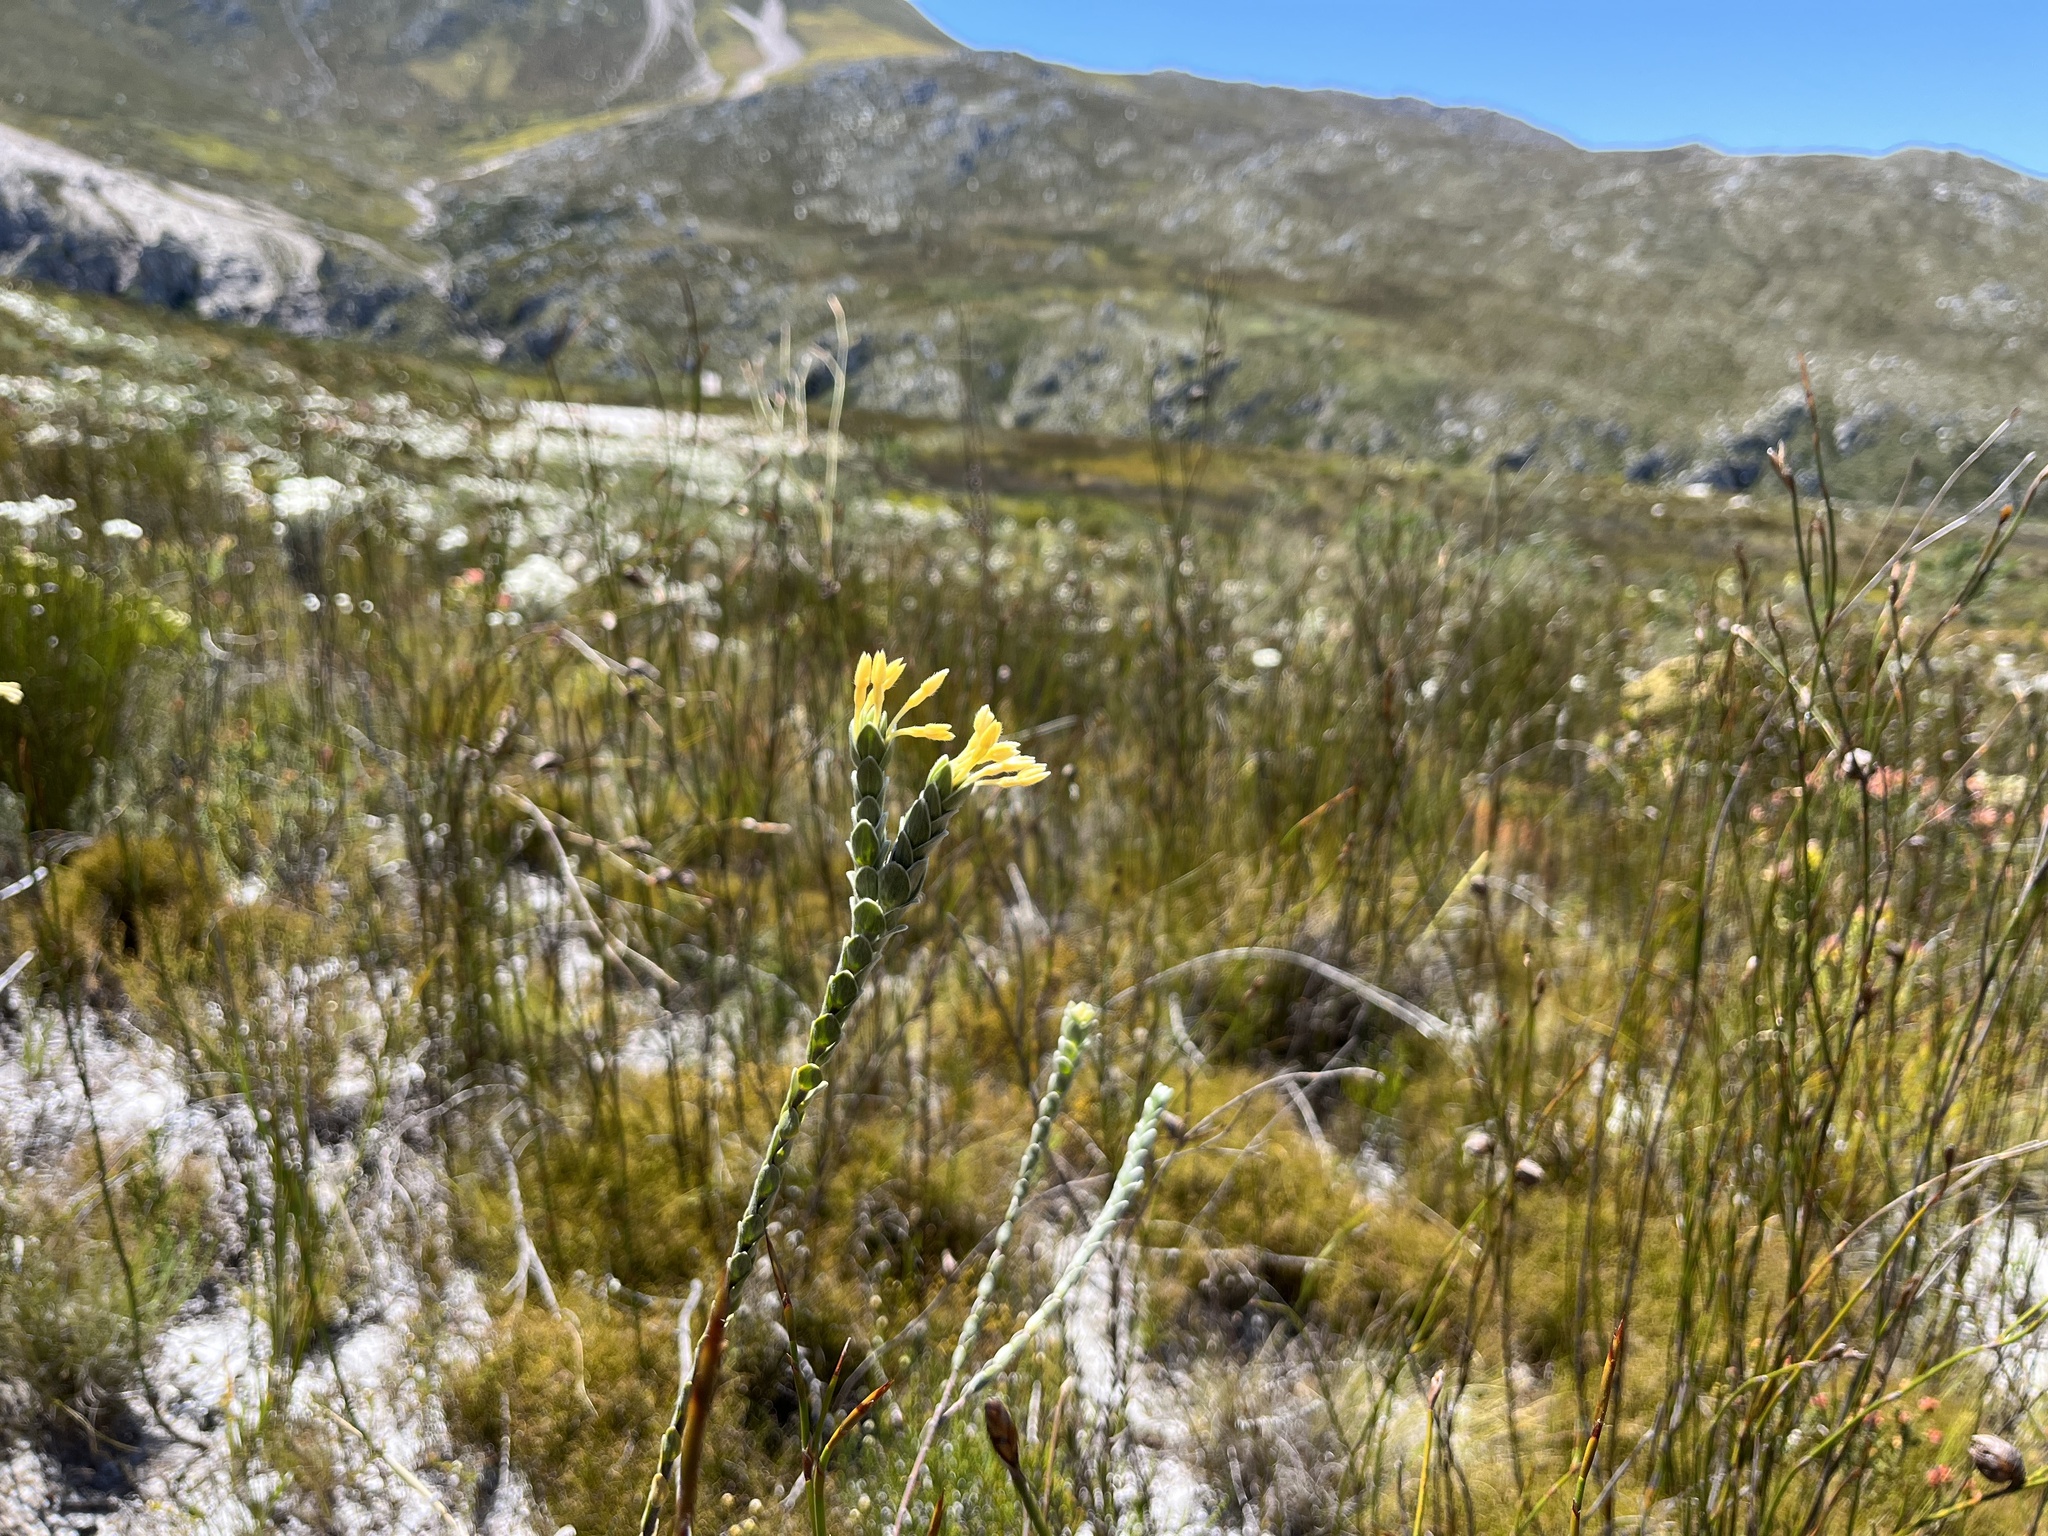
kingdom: Plantae
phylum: Tracheophyta
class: Magnoliopsida
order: Malvales
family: Thymelaeaceae
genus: Gnidia
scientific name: Gnidia anomala
